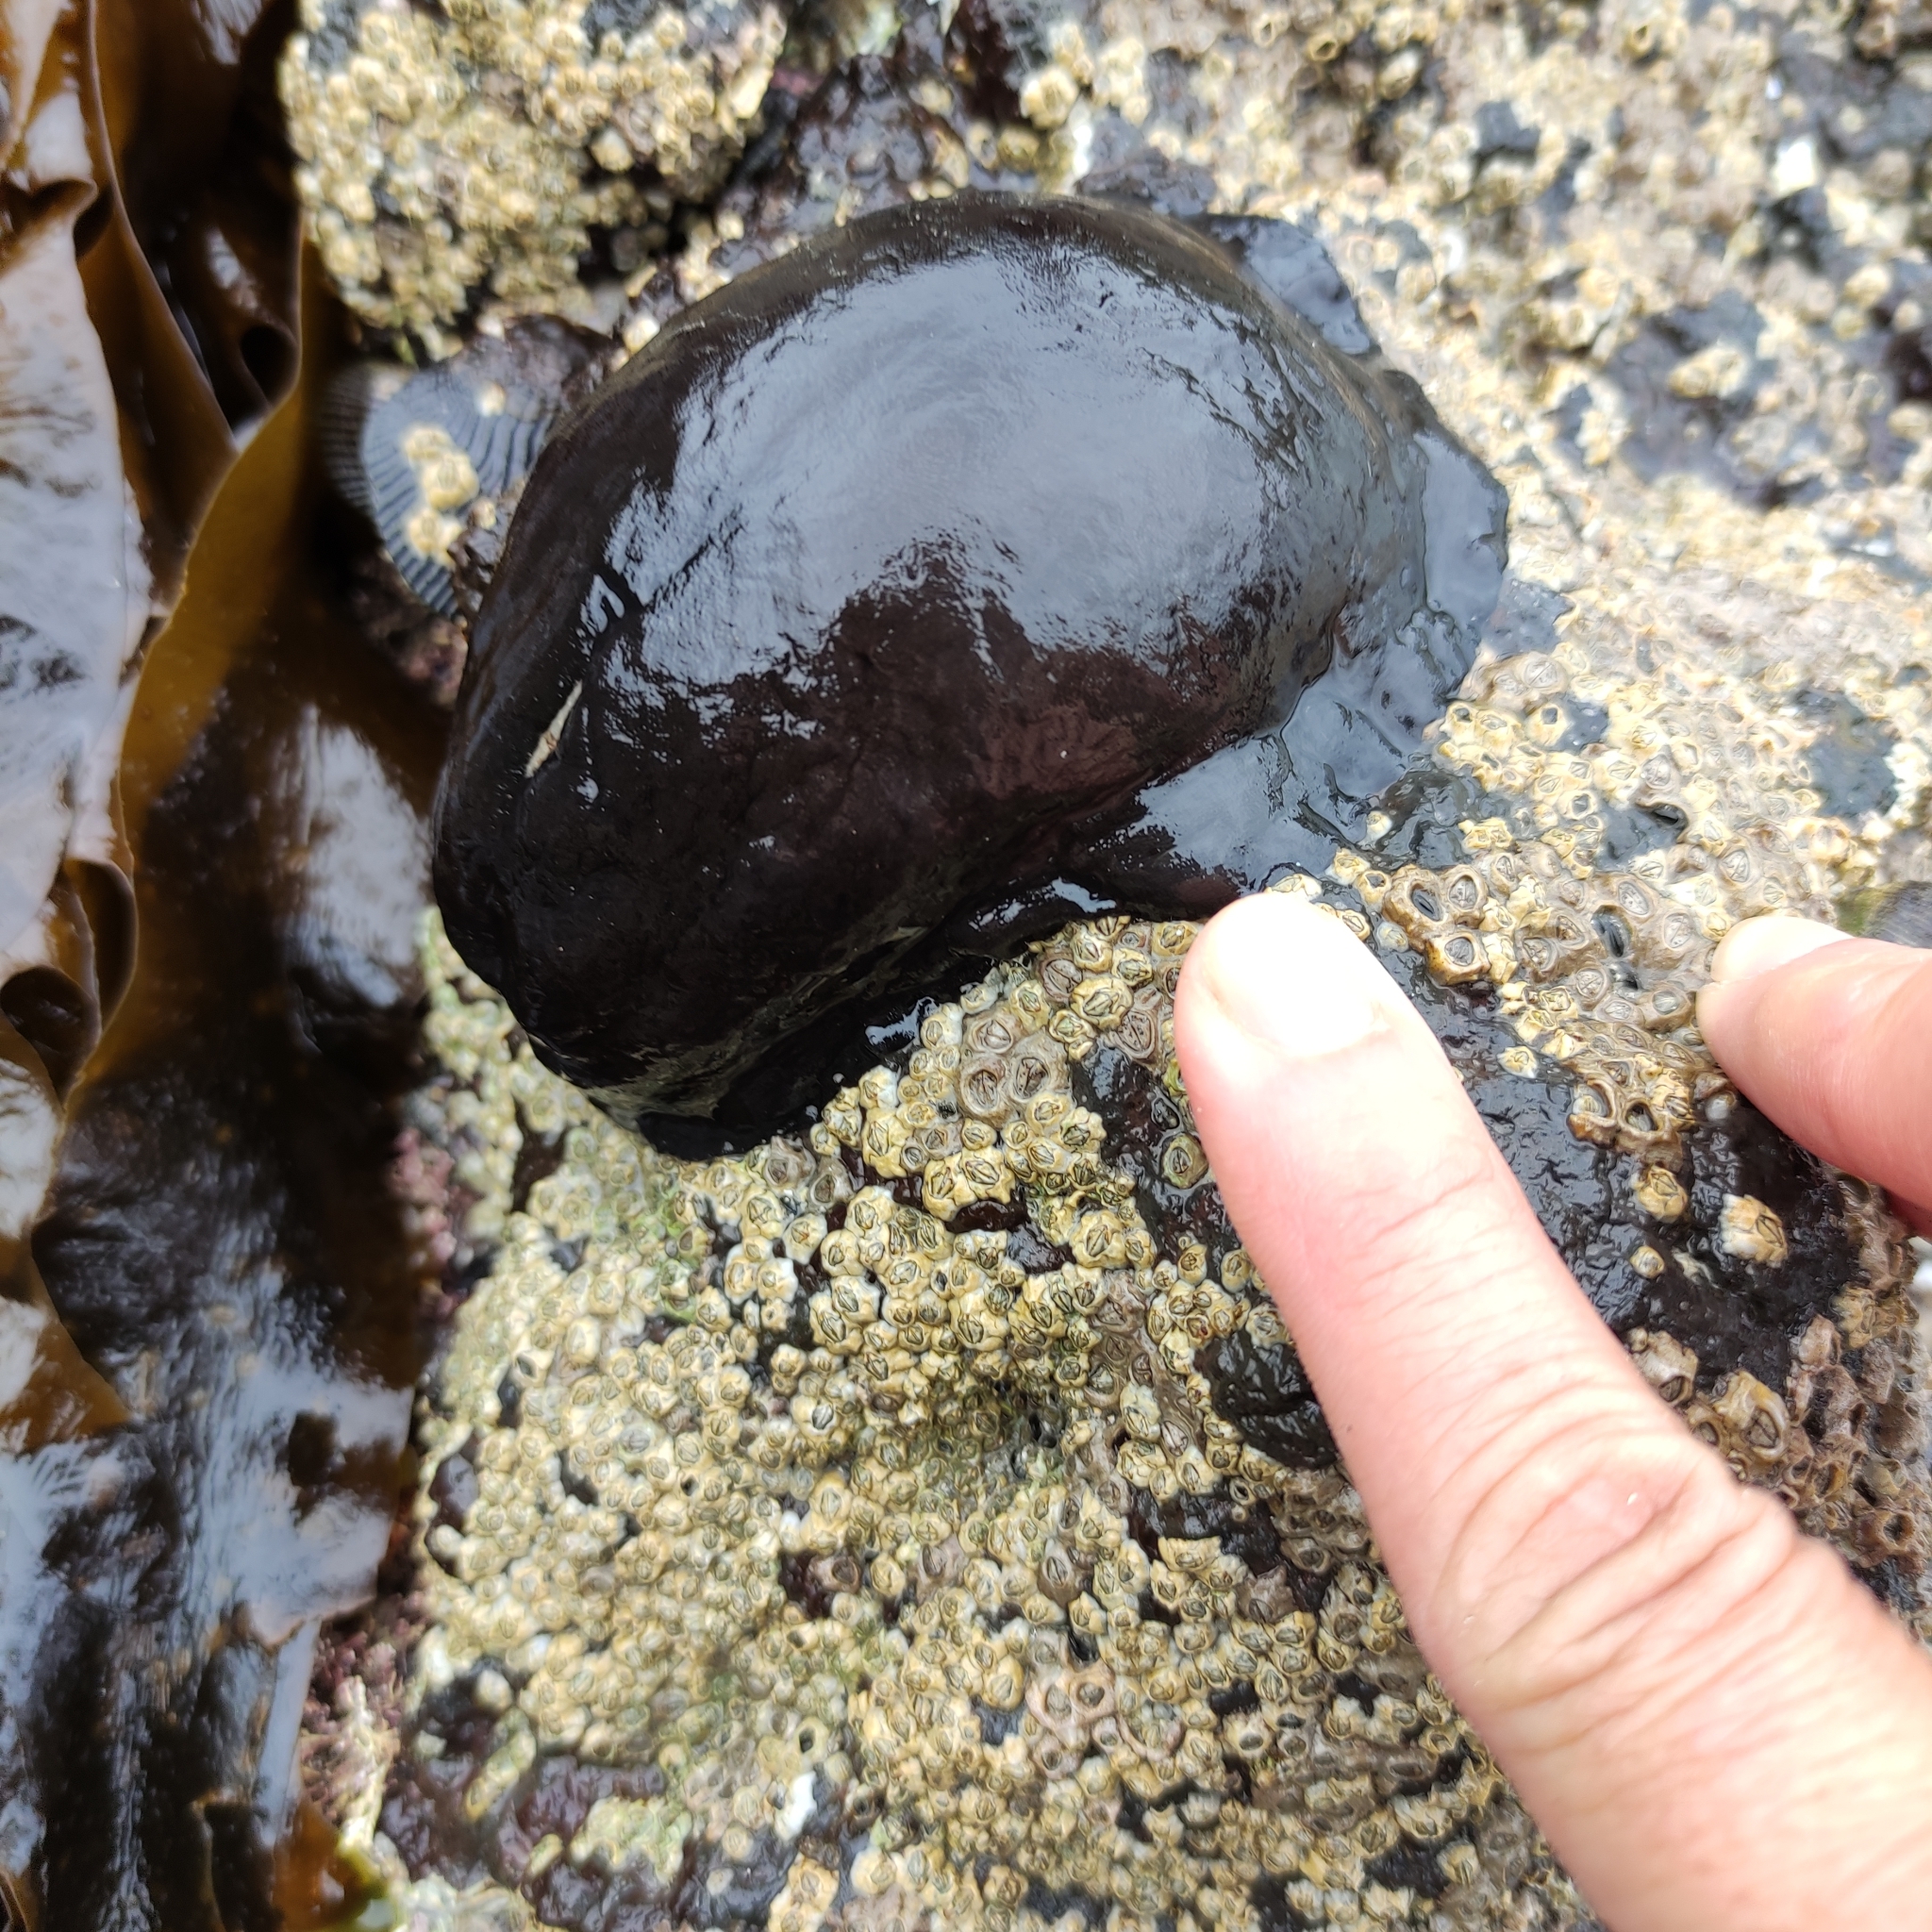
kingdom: Animalia
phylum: Mollusca
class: Gastropoda
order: Lepetellida
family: Fissurellidae
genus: Scutus
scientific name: Scutus breviculus
